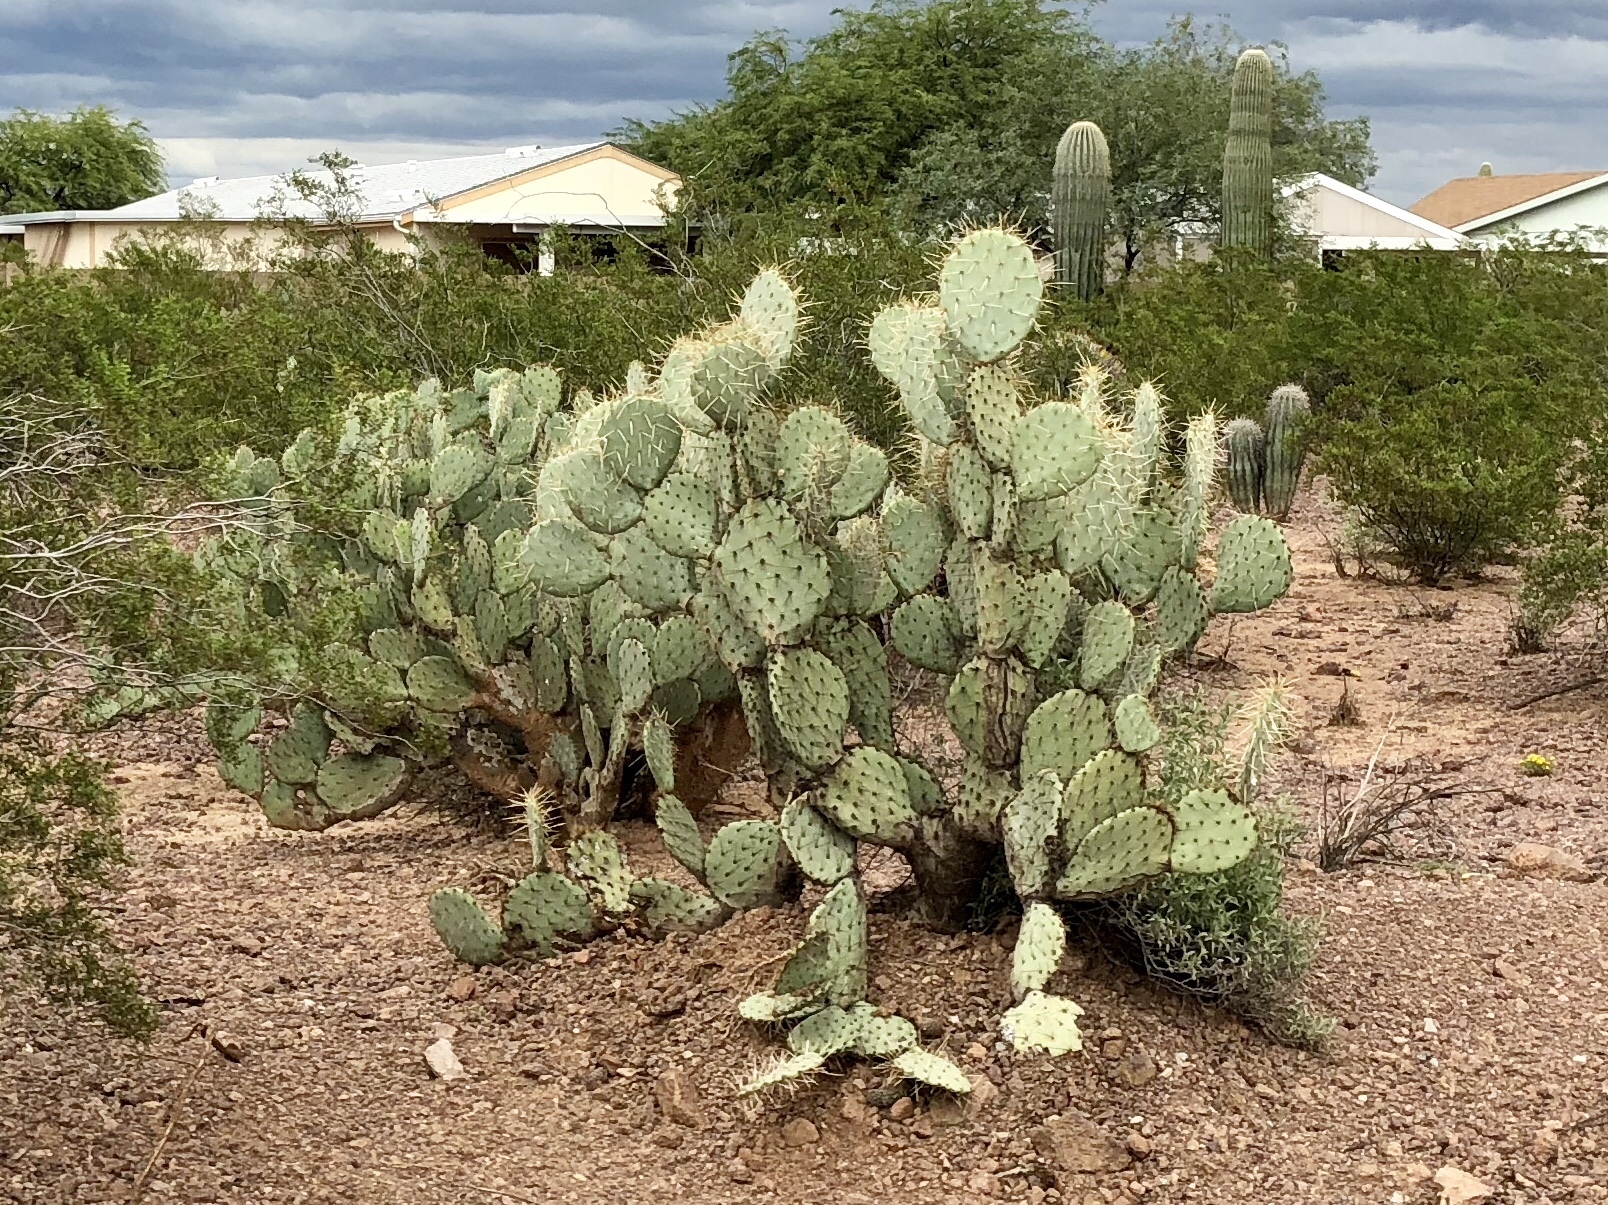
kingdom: Plantae
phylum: Tracheophyta
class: Magnoliopsida
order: Caryophyllales
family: Cactaceae
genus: Opuntia
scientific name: Opuntia engelmannii
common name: Cactus-apple
